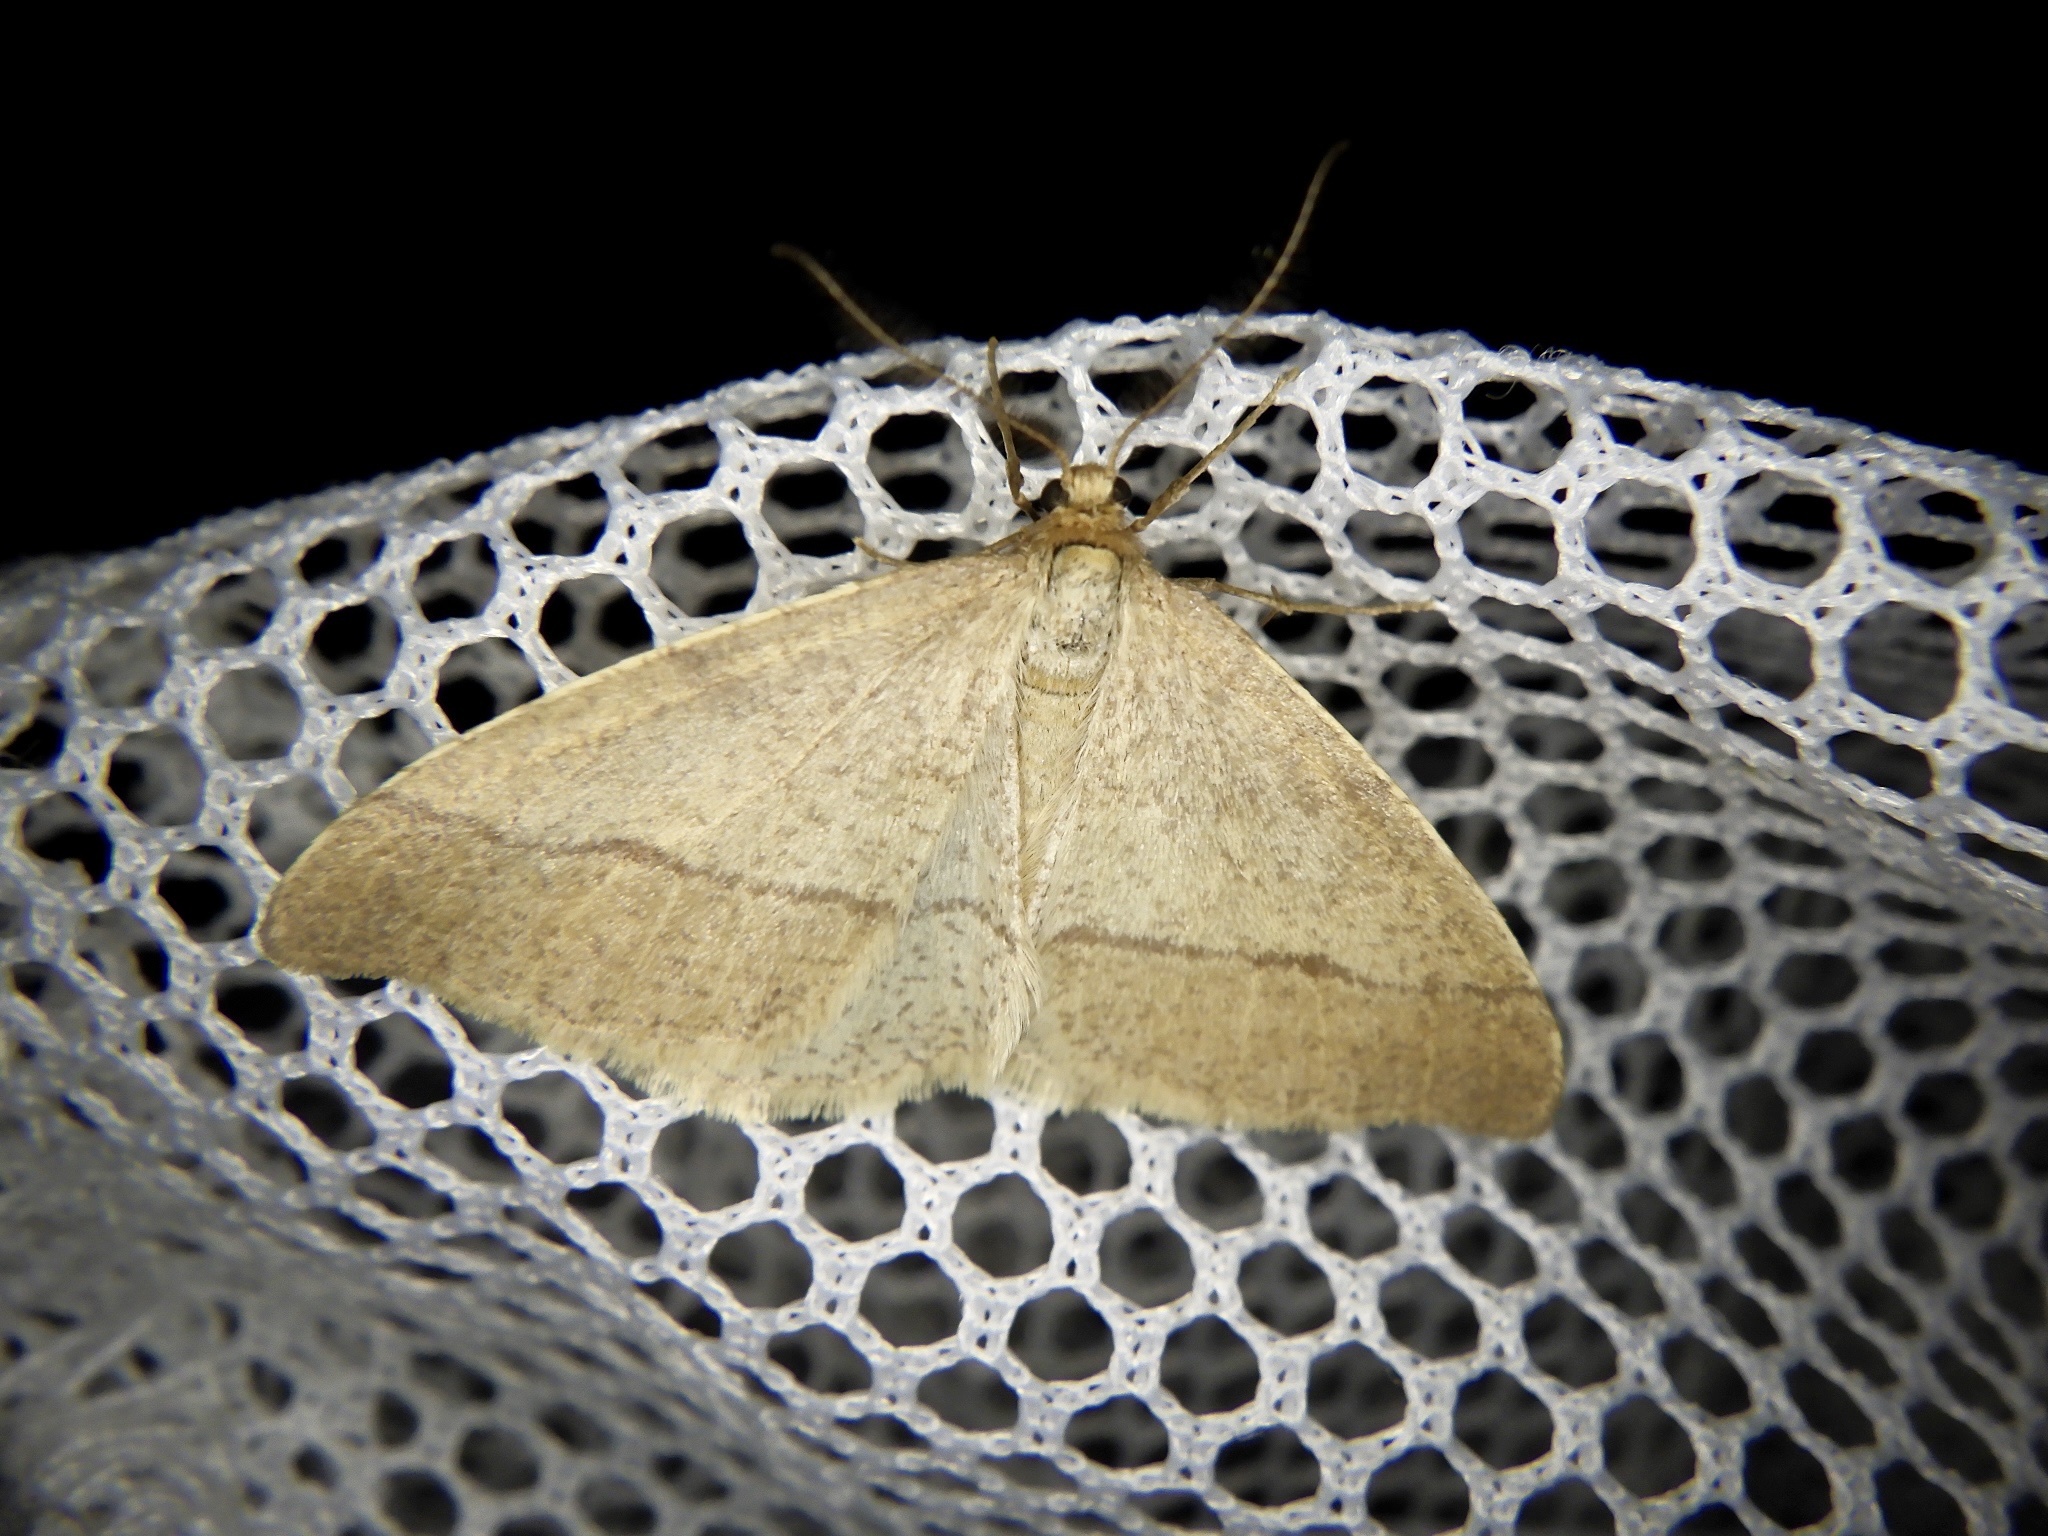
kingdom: Animalia
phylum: Arthropoda
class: Insecta
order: Lepidoptera
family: Geometridae
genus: Pachyerannis
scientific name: Pachyerannis obliquaria
